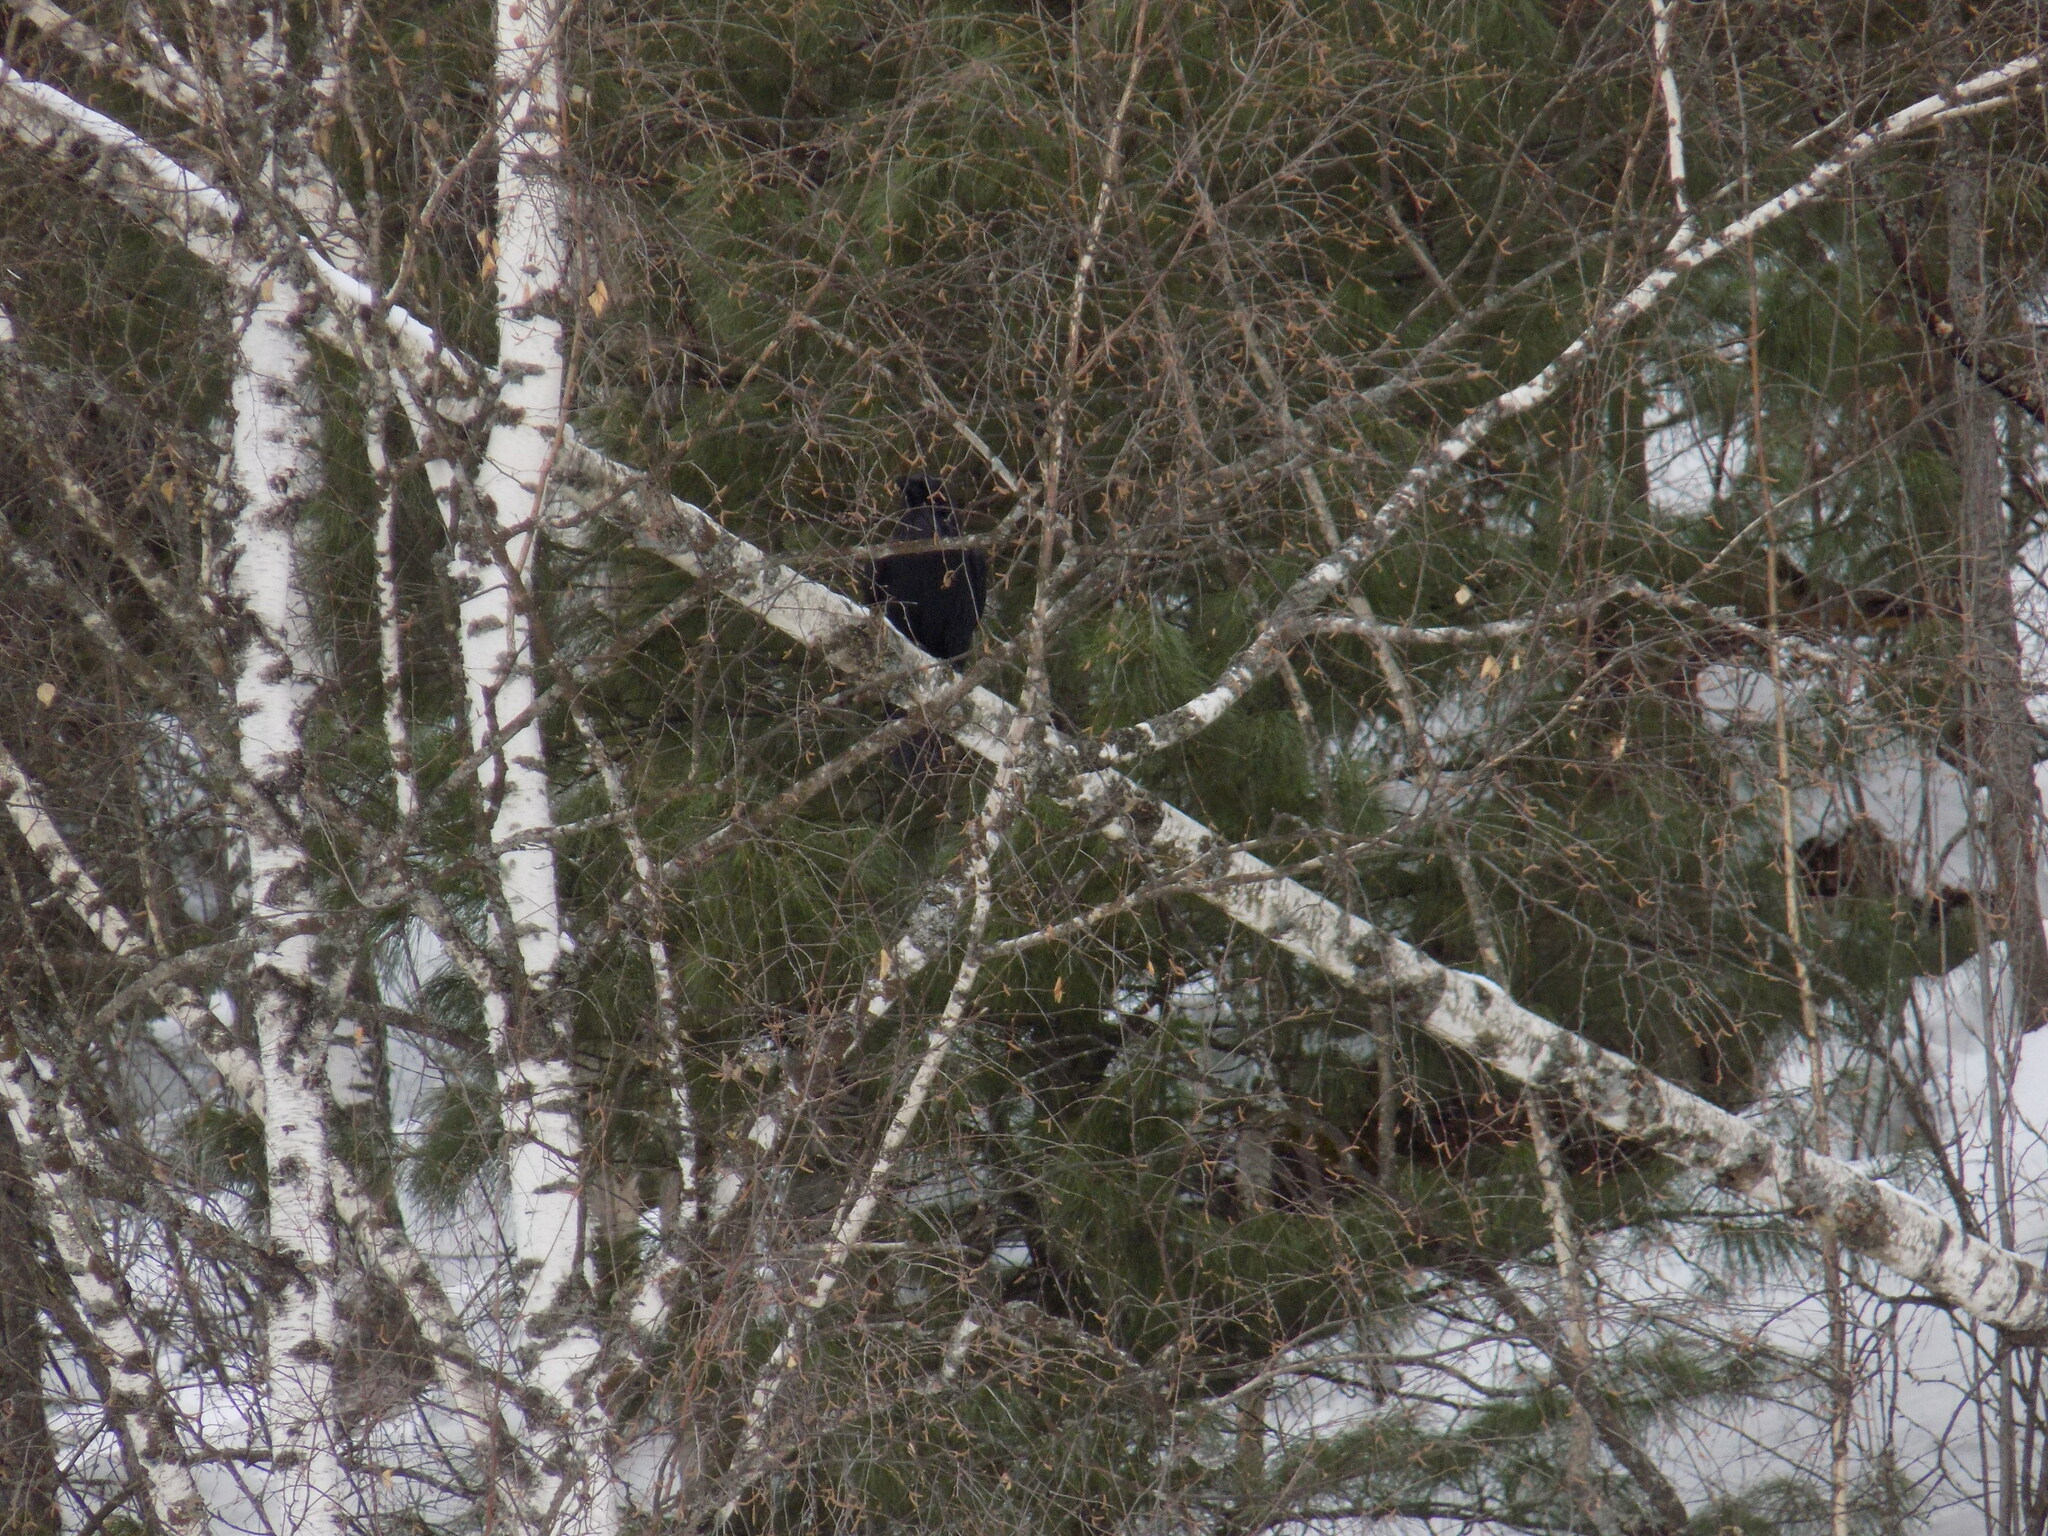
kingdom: Animalia
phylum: Chordata
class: Aves
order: Passeriformes
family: Corvidae
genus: Corvus
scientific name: Corvus corax
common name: Common raven
